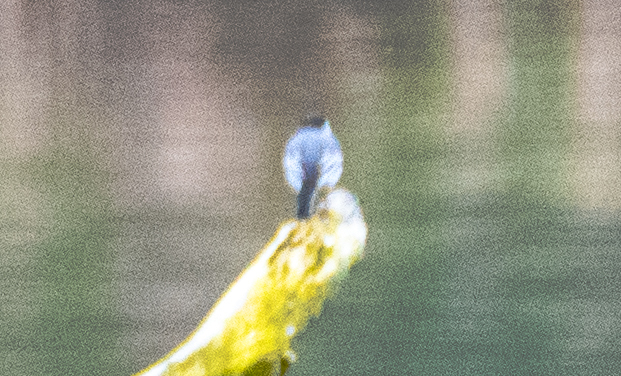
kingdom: Animalia
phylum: Chordata
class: Aves
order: Passeriformes
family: Motacillidae
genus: Motacilla
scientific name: Motacilla alba
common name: White wagtail
